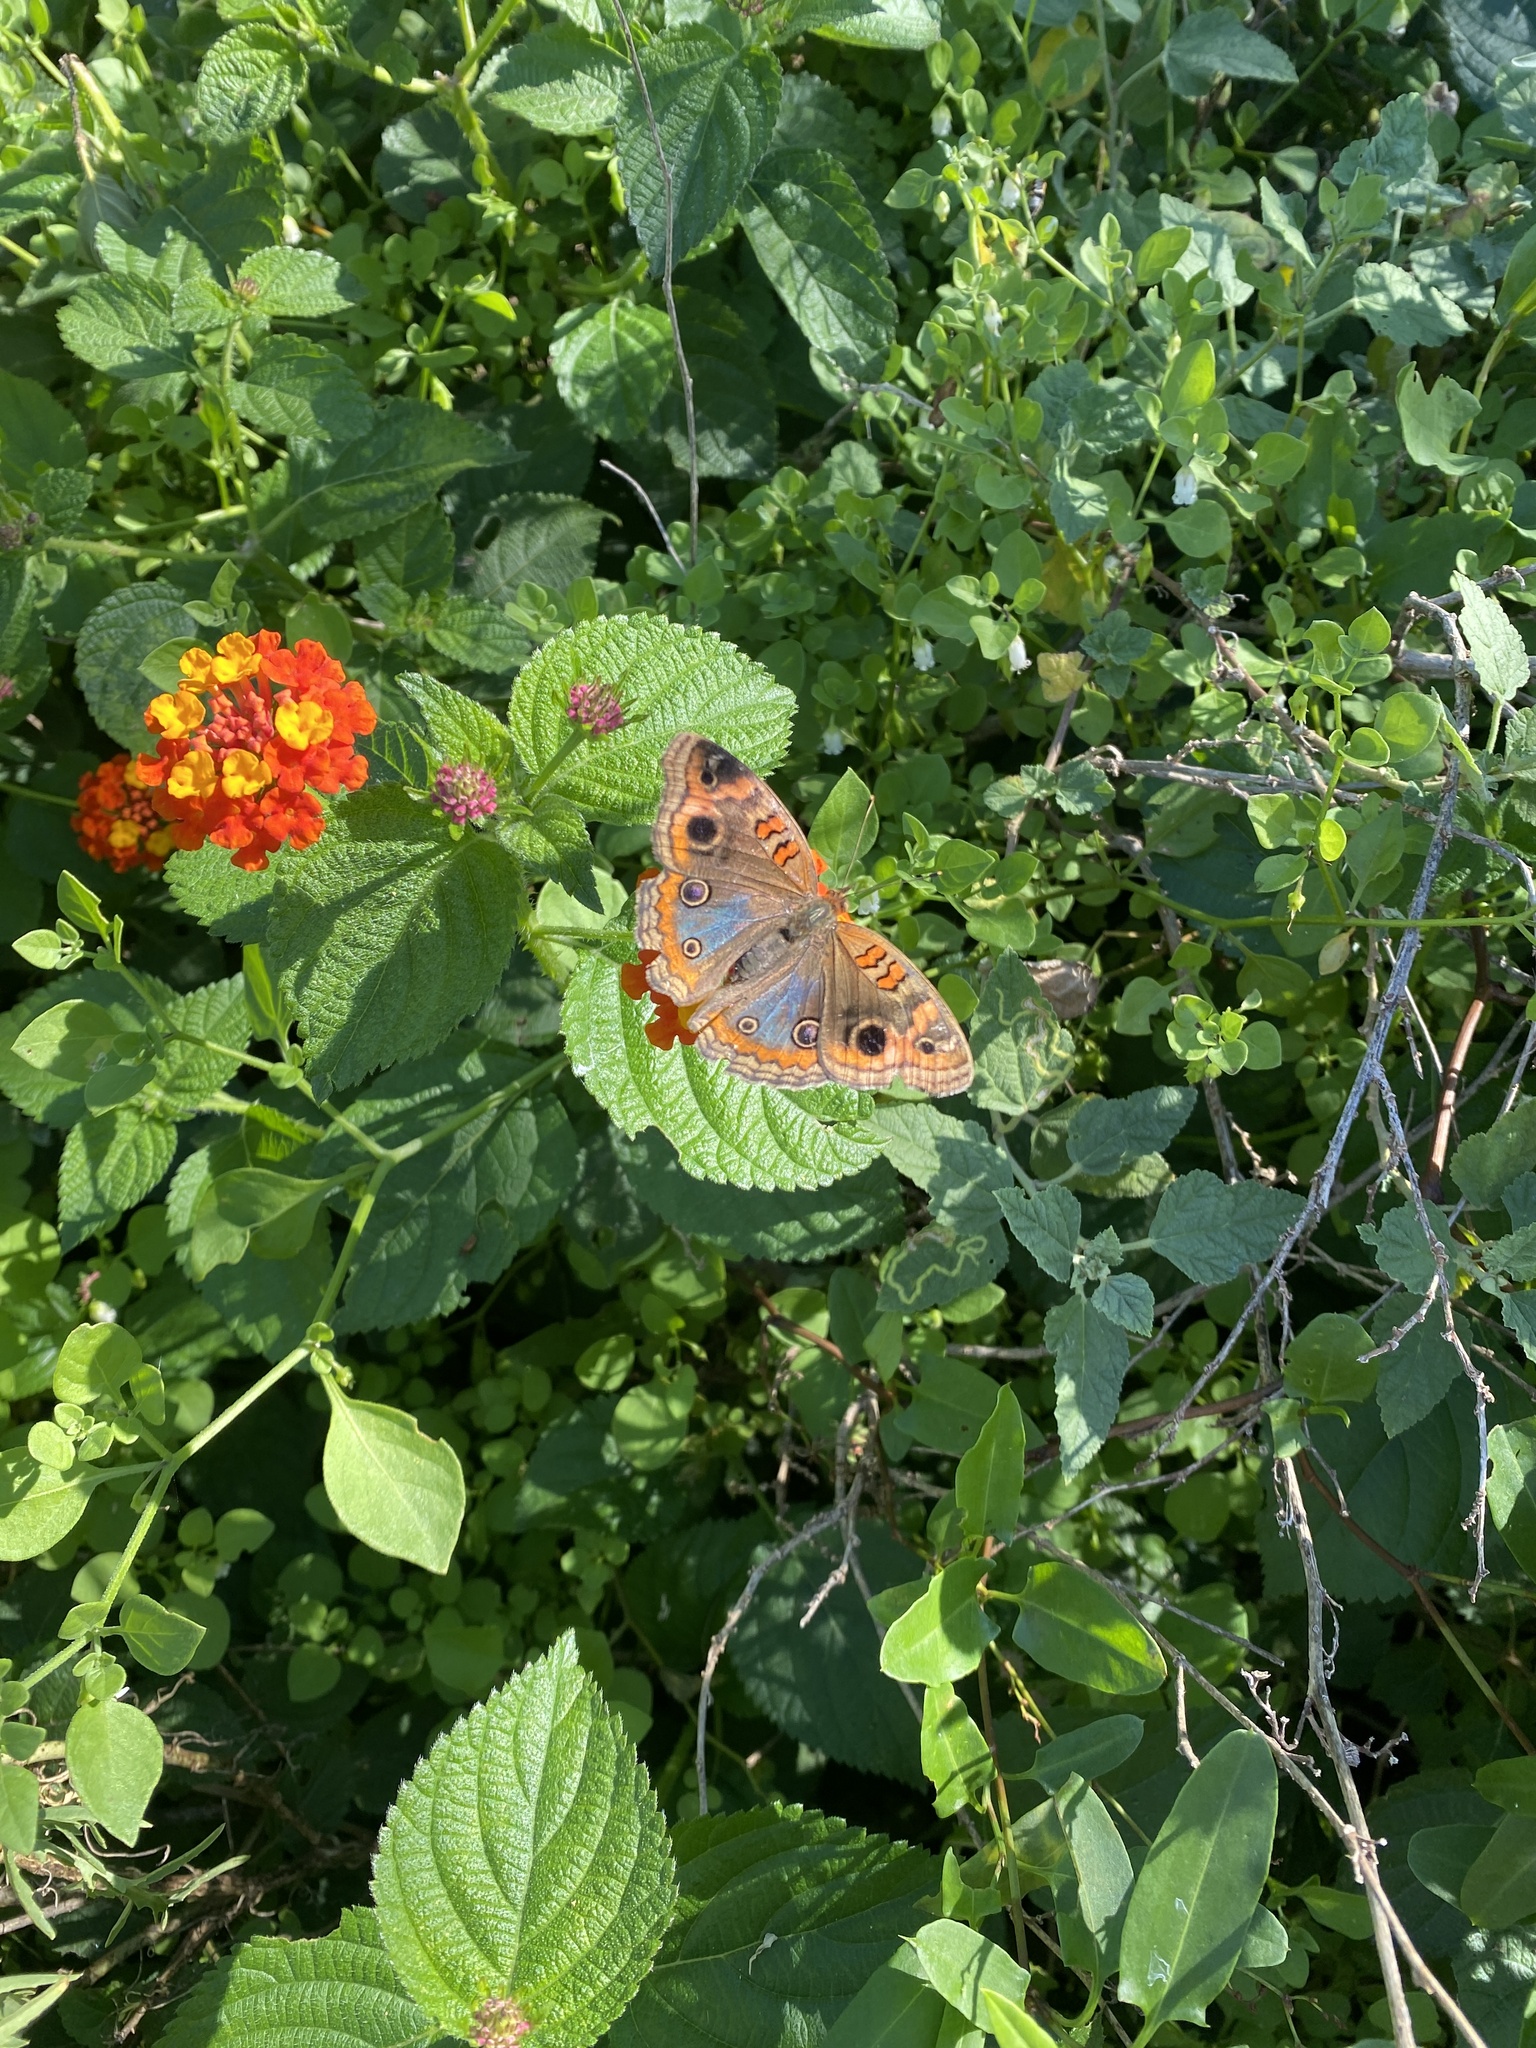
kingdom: Animalia
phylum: Arthropoda
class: Insecta
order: Lepidoptera
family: Nymphalidae
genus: Junonia
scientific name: Junonia lavinia
